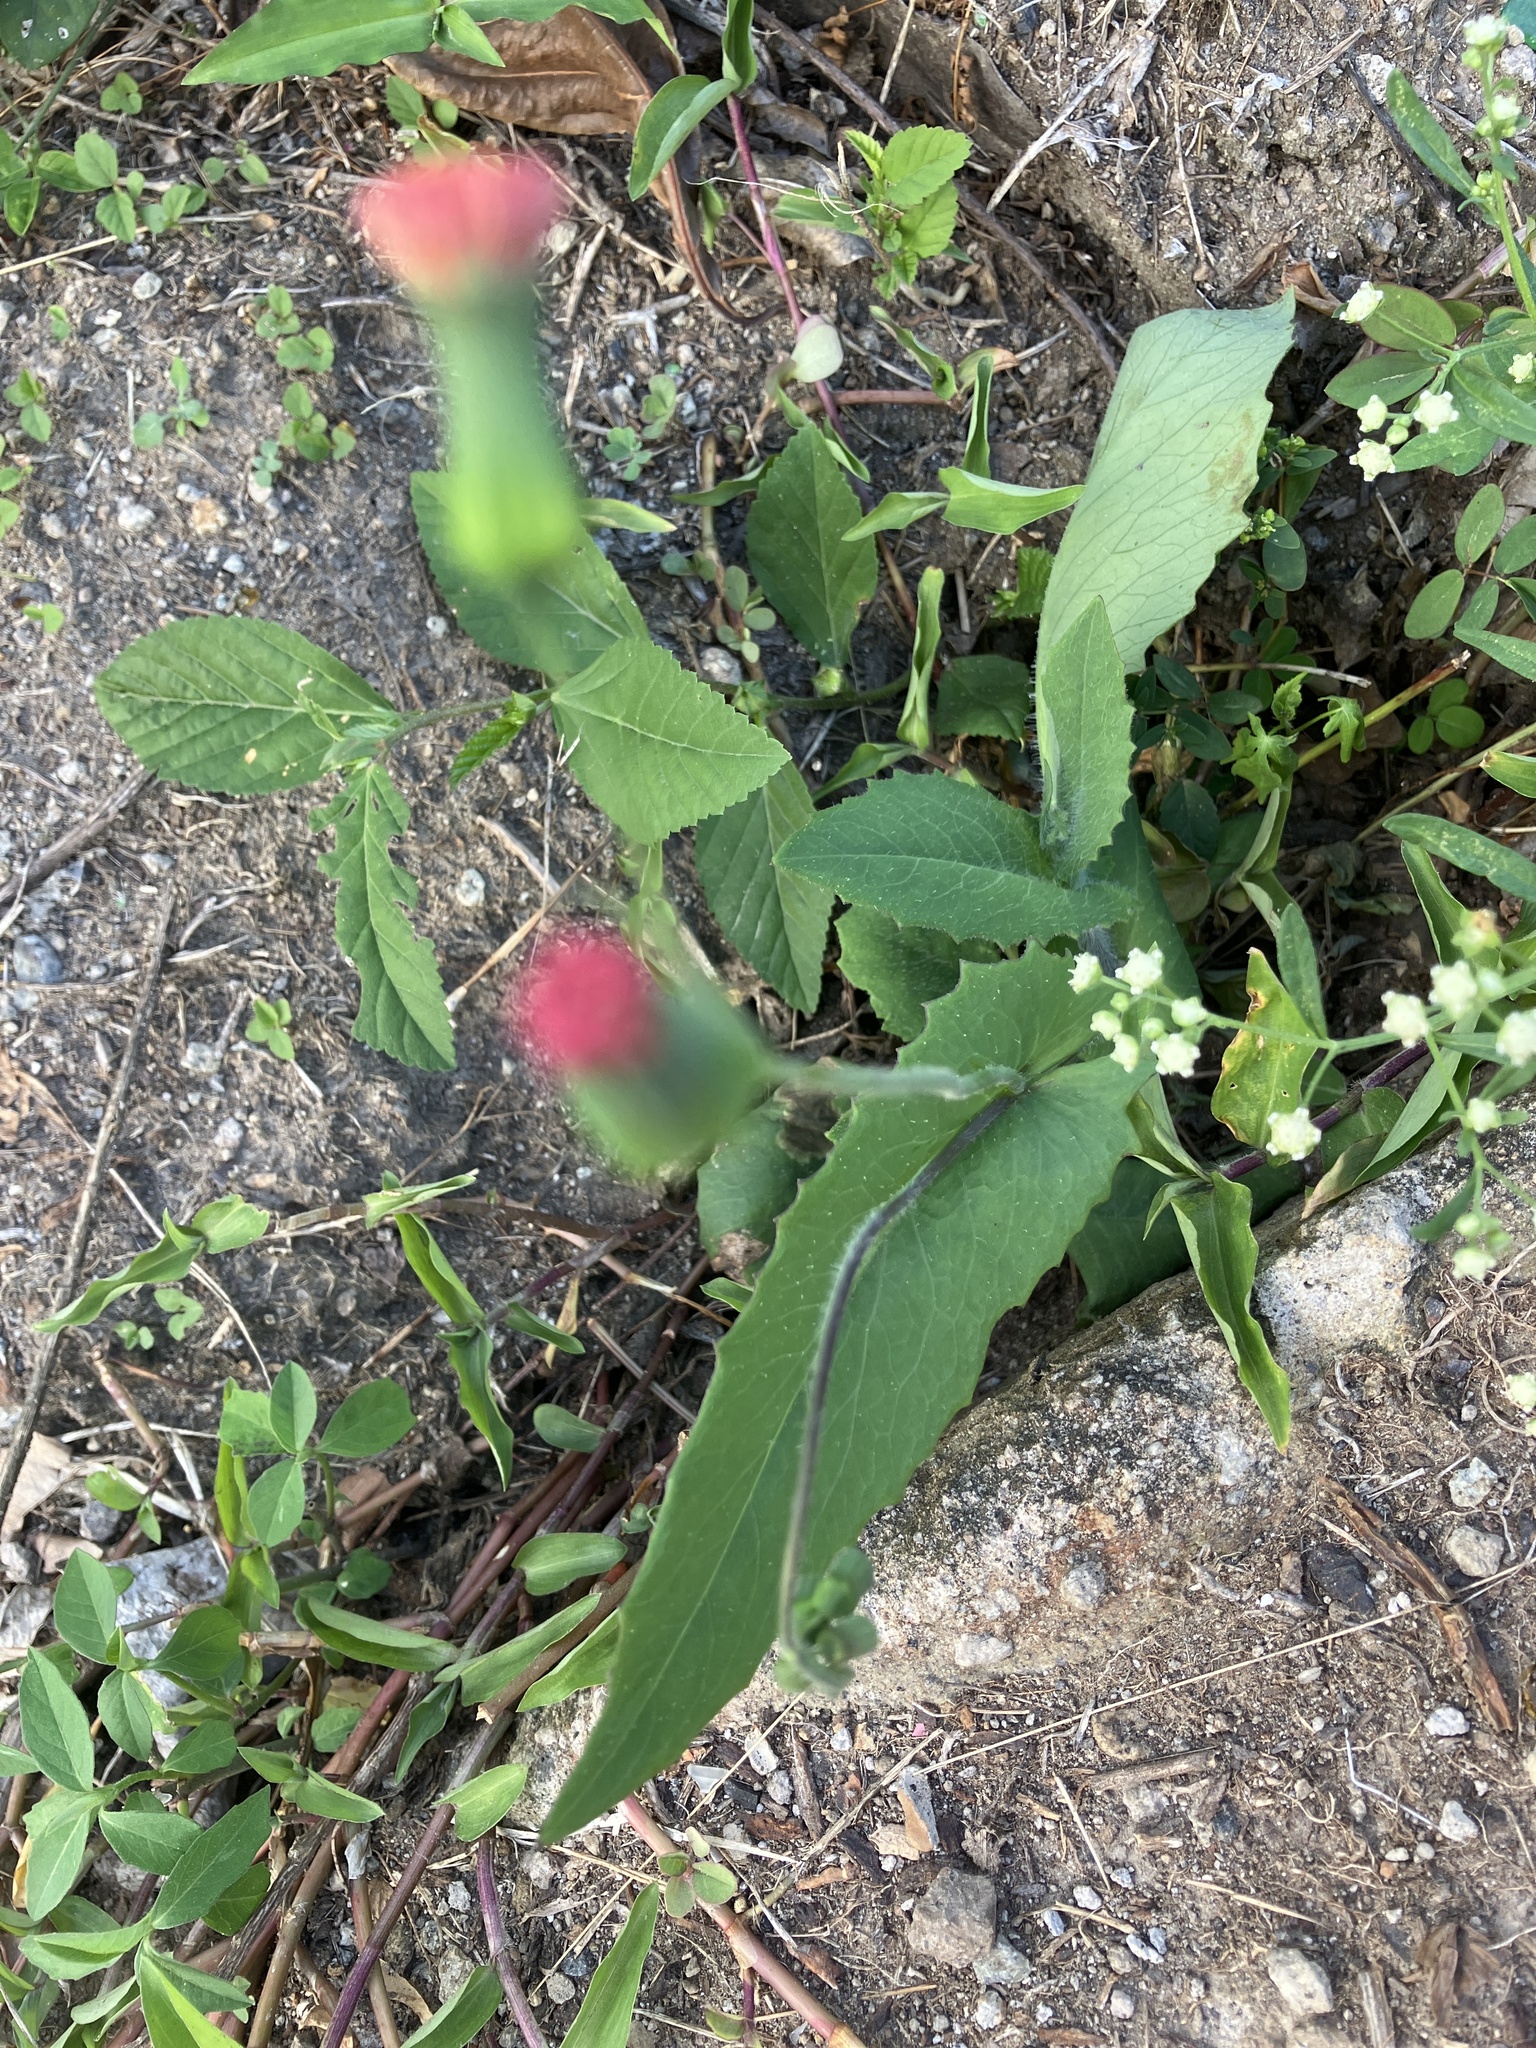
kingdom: Plantae
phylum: Tracheophyta
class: Magnoliopsida
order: Asterales
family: Asteraceae
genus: Emilia
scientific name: Emilia fosbergii
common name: Florida tasselflower
